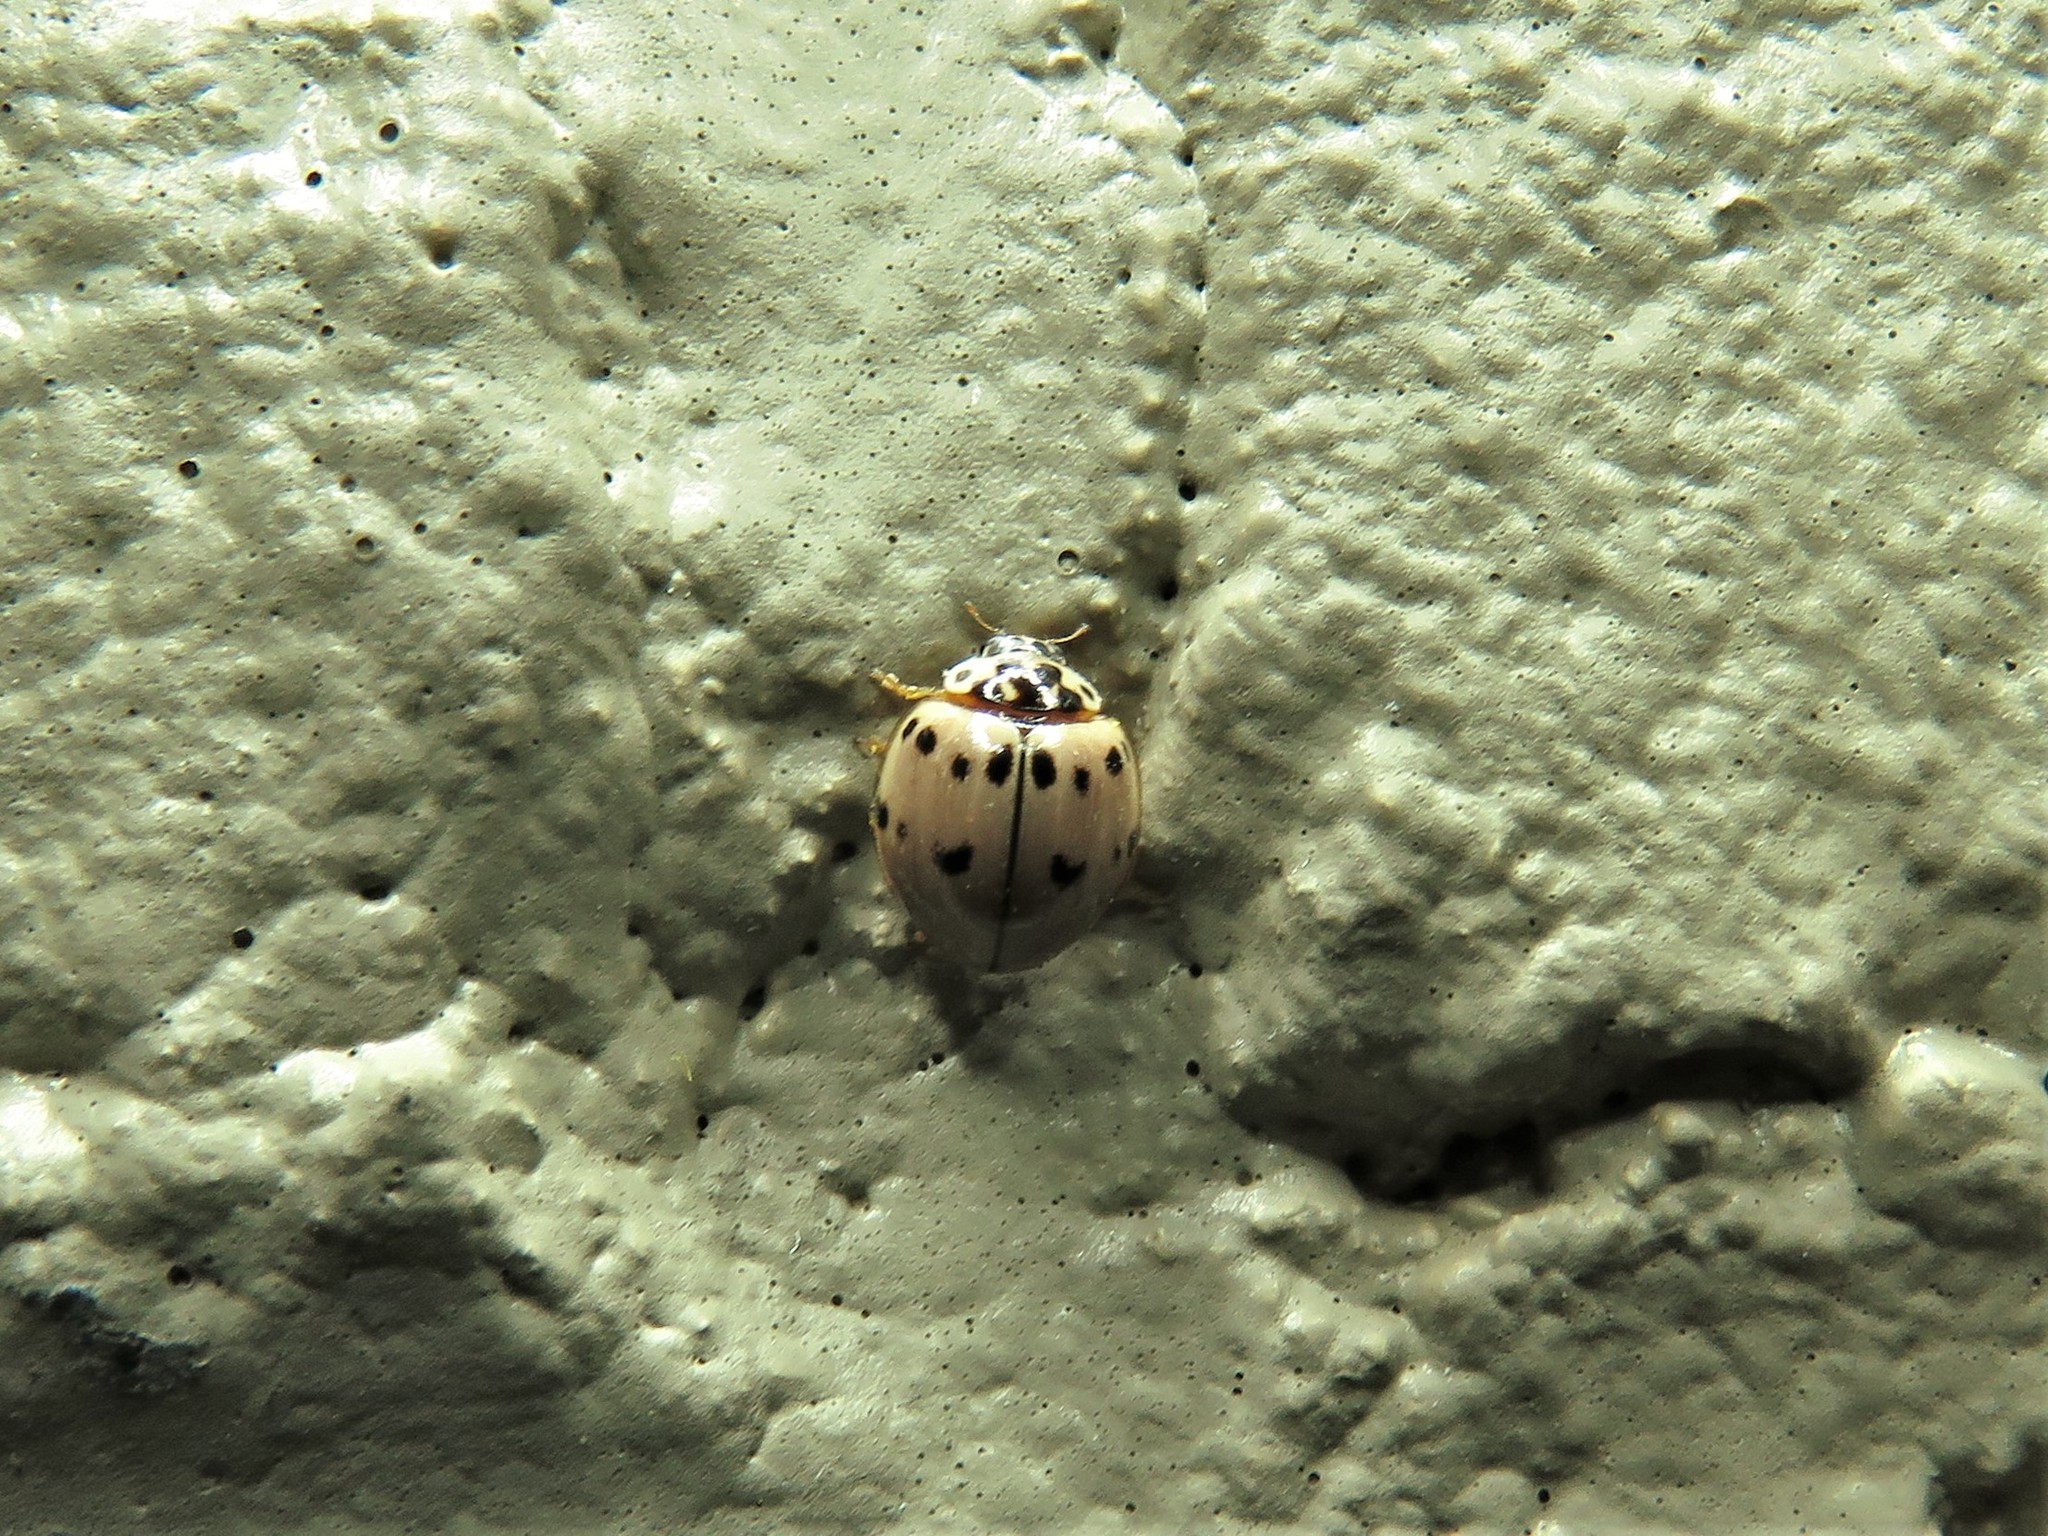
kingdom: Animalia
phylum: Arthropoda
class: Insecta
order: Coleoptera
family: Coccinellidae
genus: Olla
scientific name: Olla v-nigrum
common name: Ashy gray lady beetle
